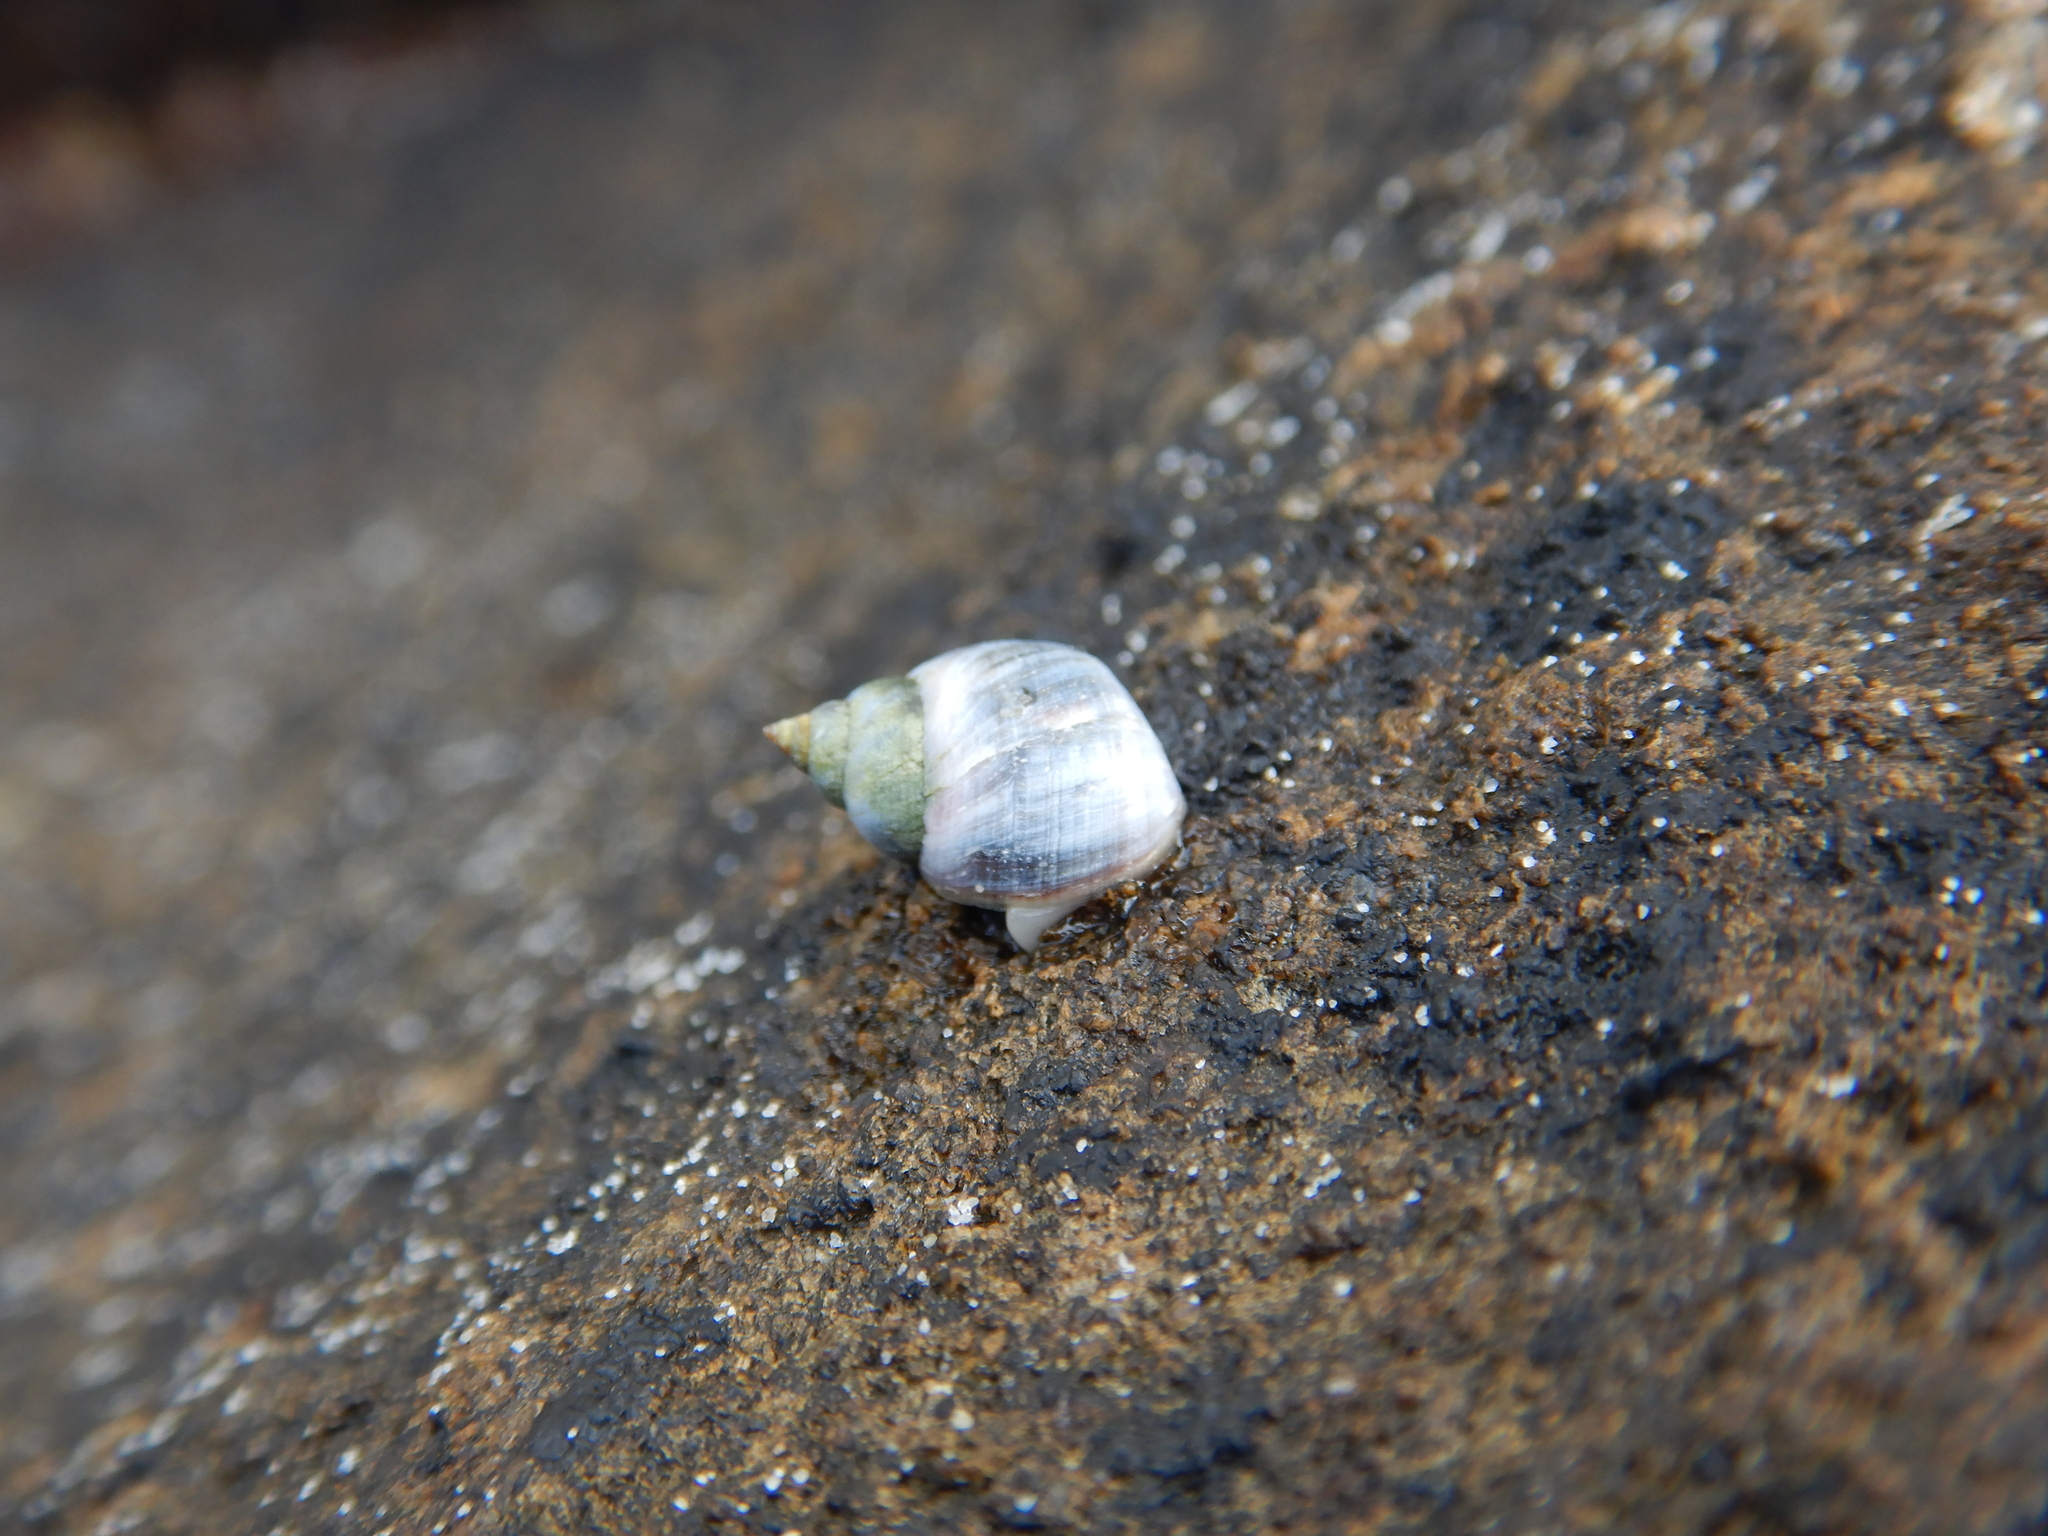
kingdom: Animalia
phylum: Mollusca
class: Gastropoda
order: Littorinimorpha
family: Littorinidae
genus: Austrolittorina
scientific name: Austrolittorina unifasciata
